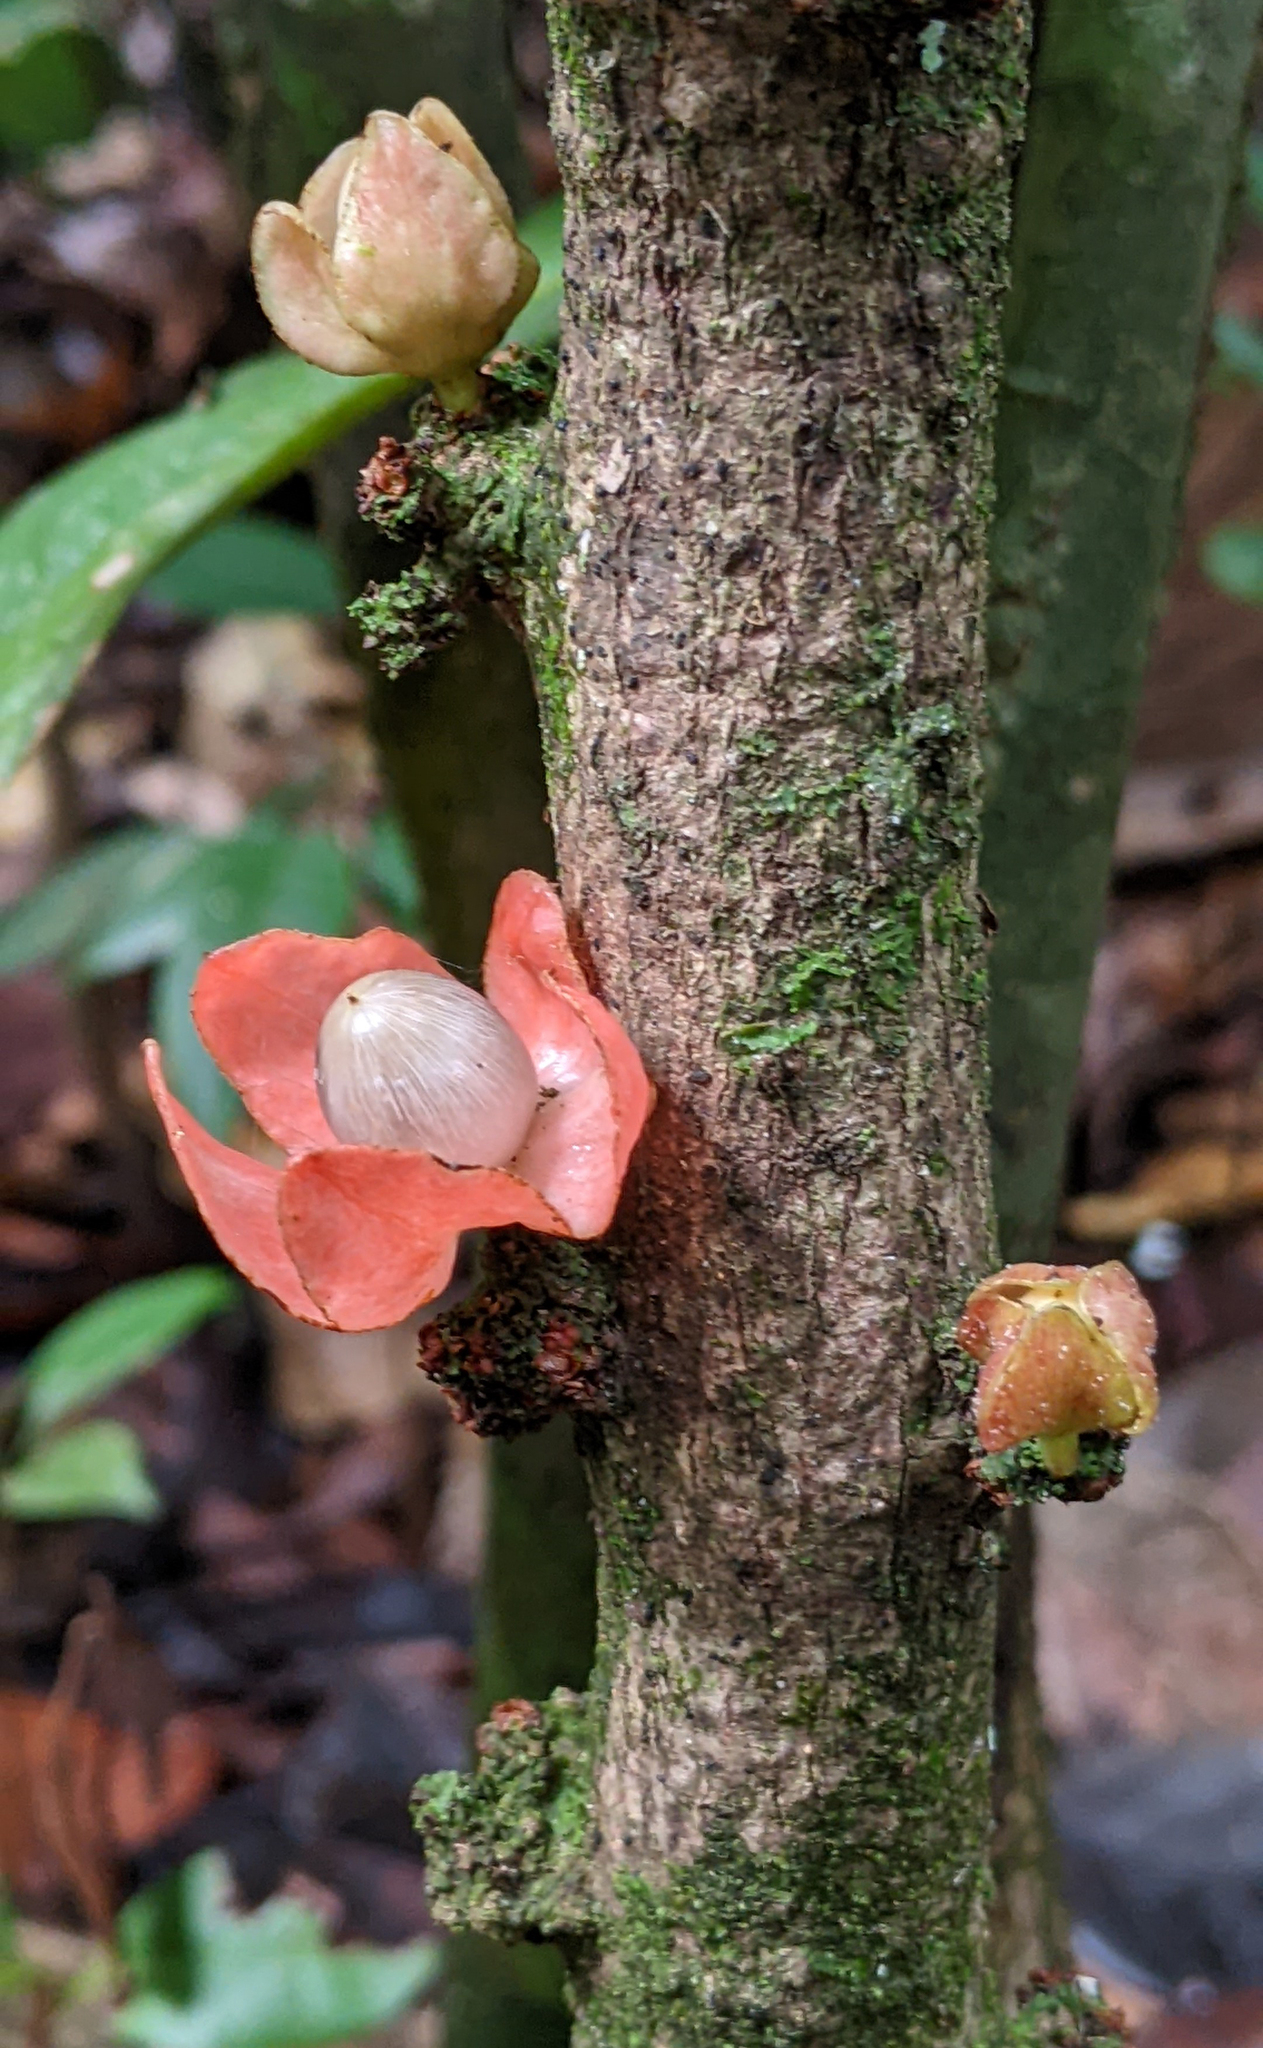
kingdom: Plantae
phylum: Tracheophyta
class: Magnoliopsida
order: Santalales
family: Erythropalaceae
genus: Heisteria
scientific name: Heisteria insculpta
